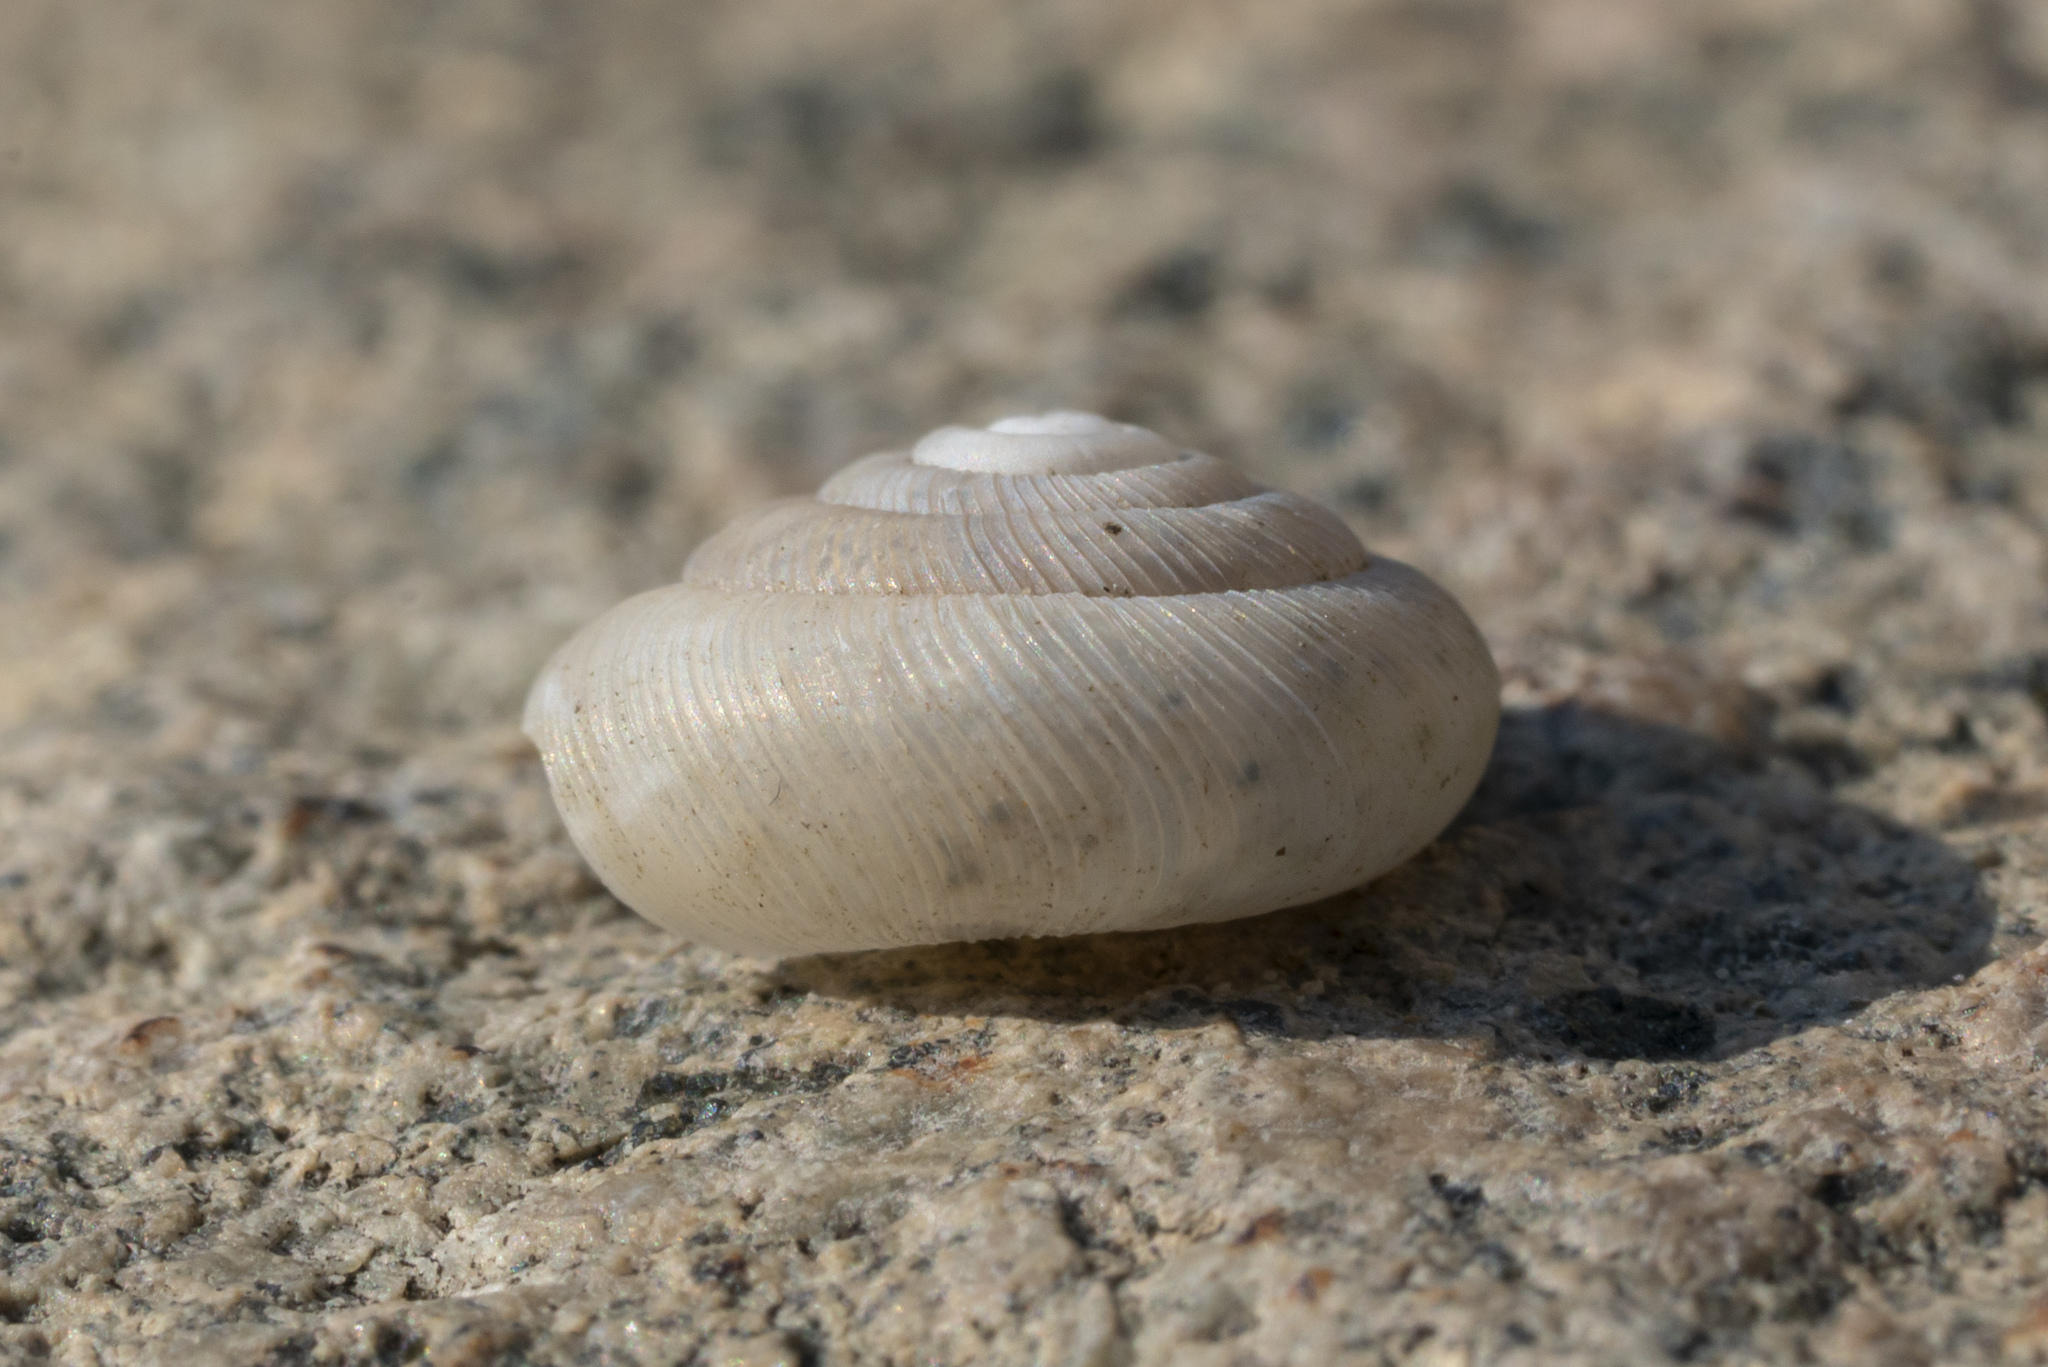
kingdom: Animalia
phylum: Mollusca
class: Gastropoda
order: Stylommatophora
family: Pleurodiscidae
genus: Pleurodiscus
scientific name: Pleurodiscus balmei
